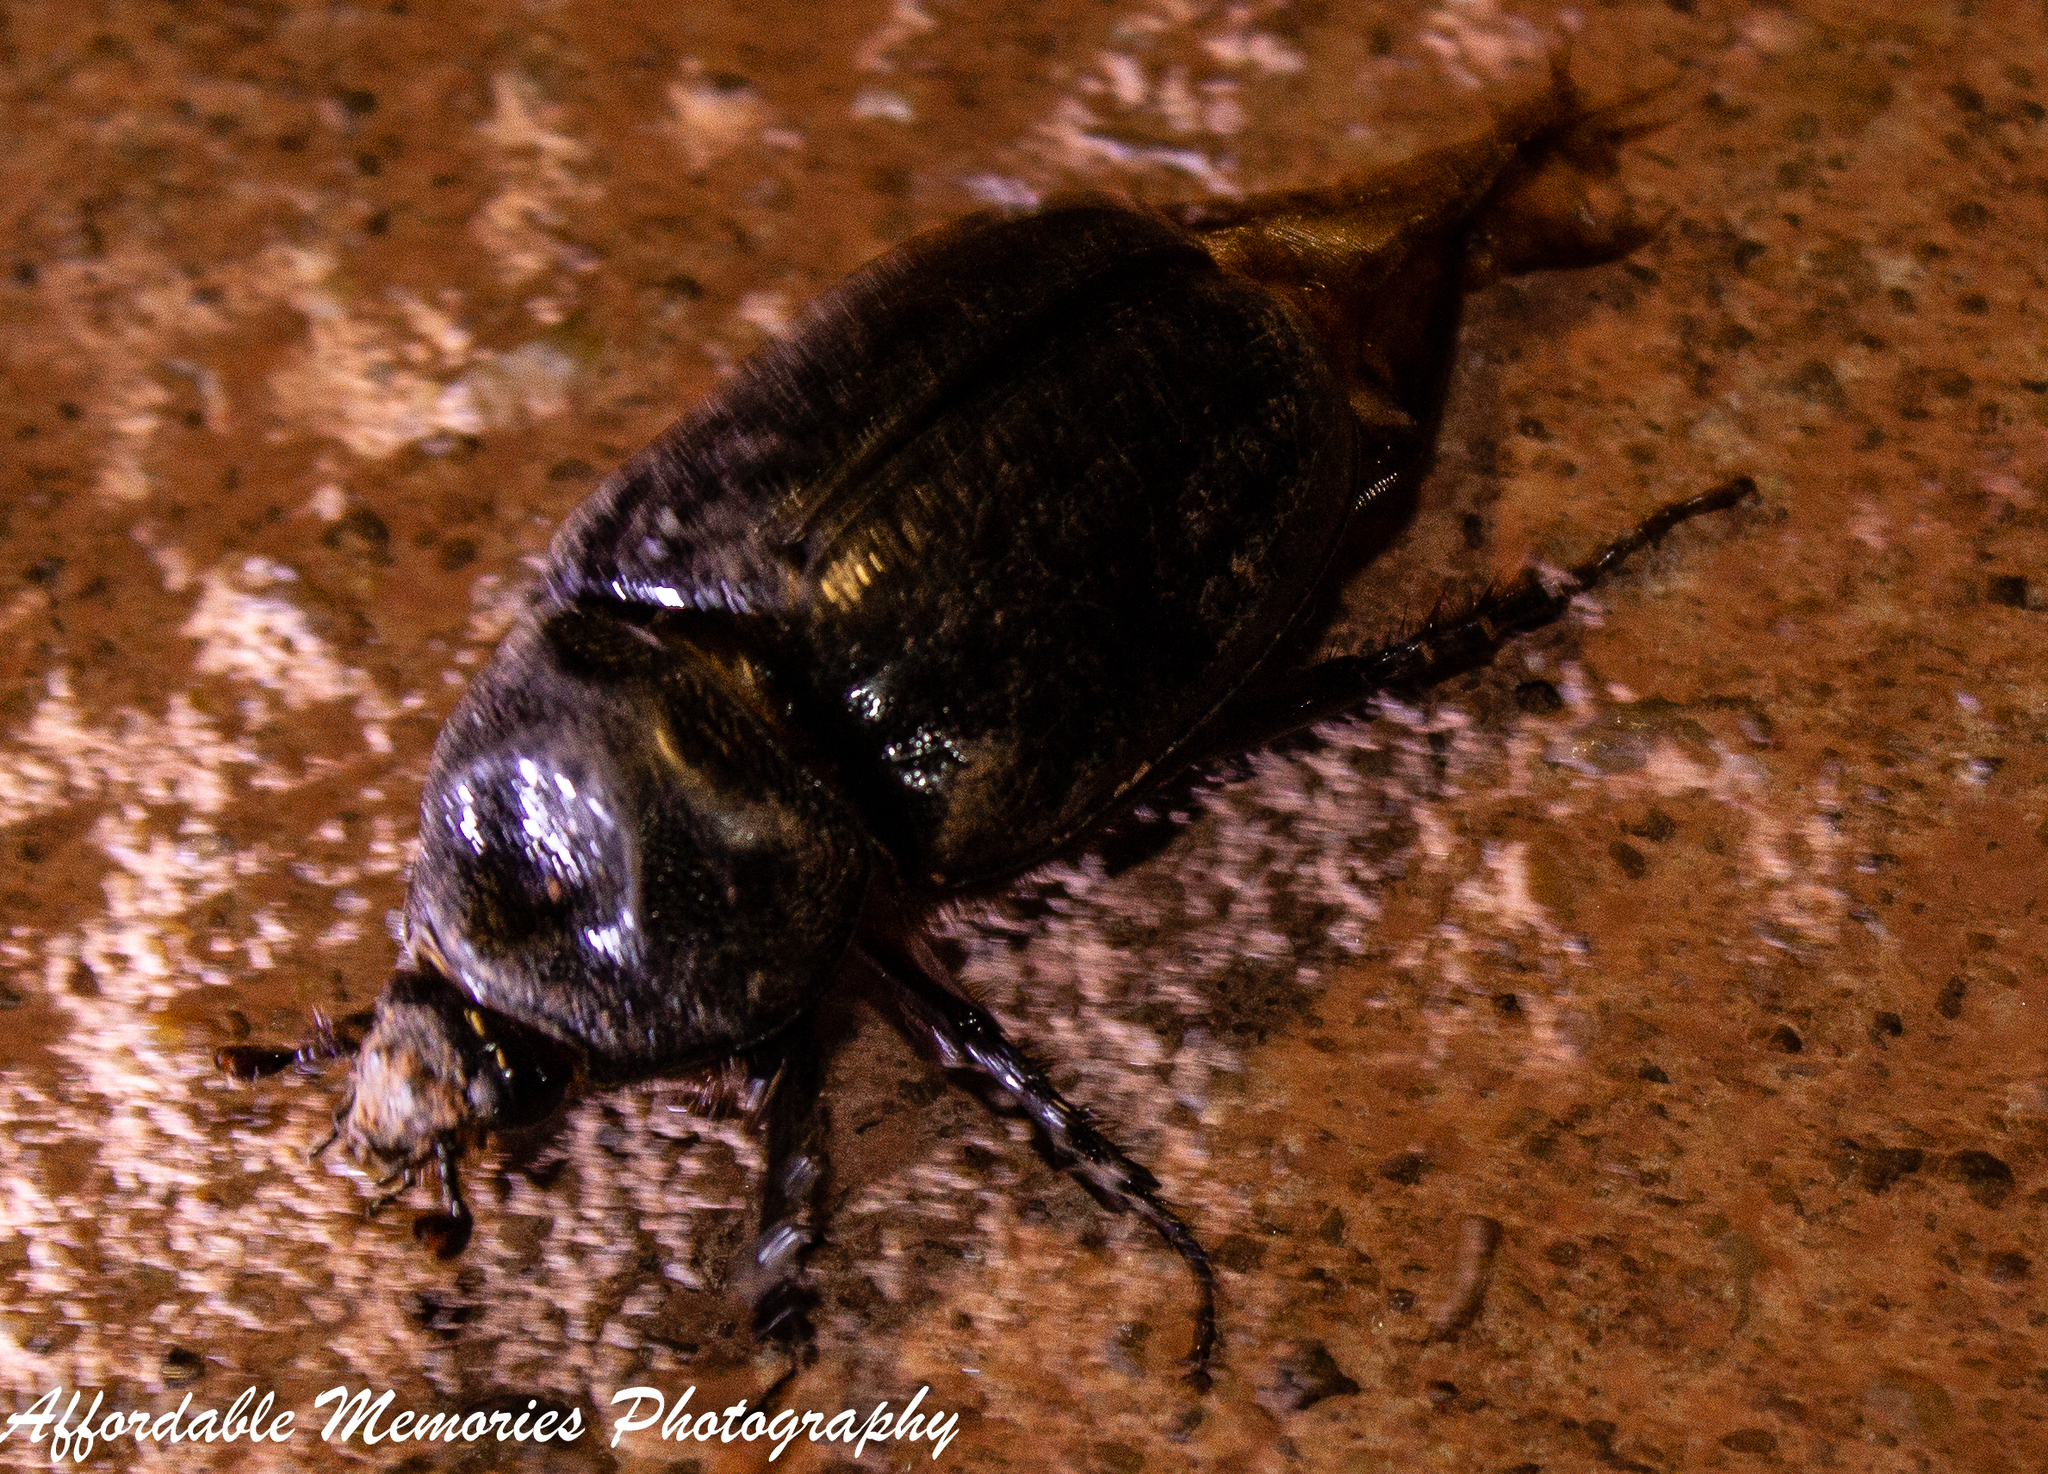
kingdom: Animalia
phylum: Arthropoda
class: Insecta
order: Coleoptera
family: Scarabaeidae
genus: Strategus
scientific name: Strategus aloeus
